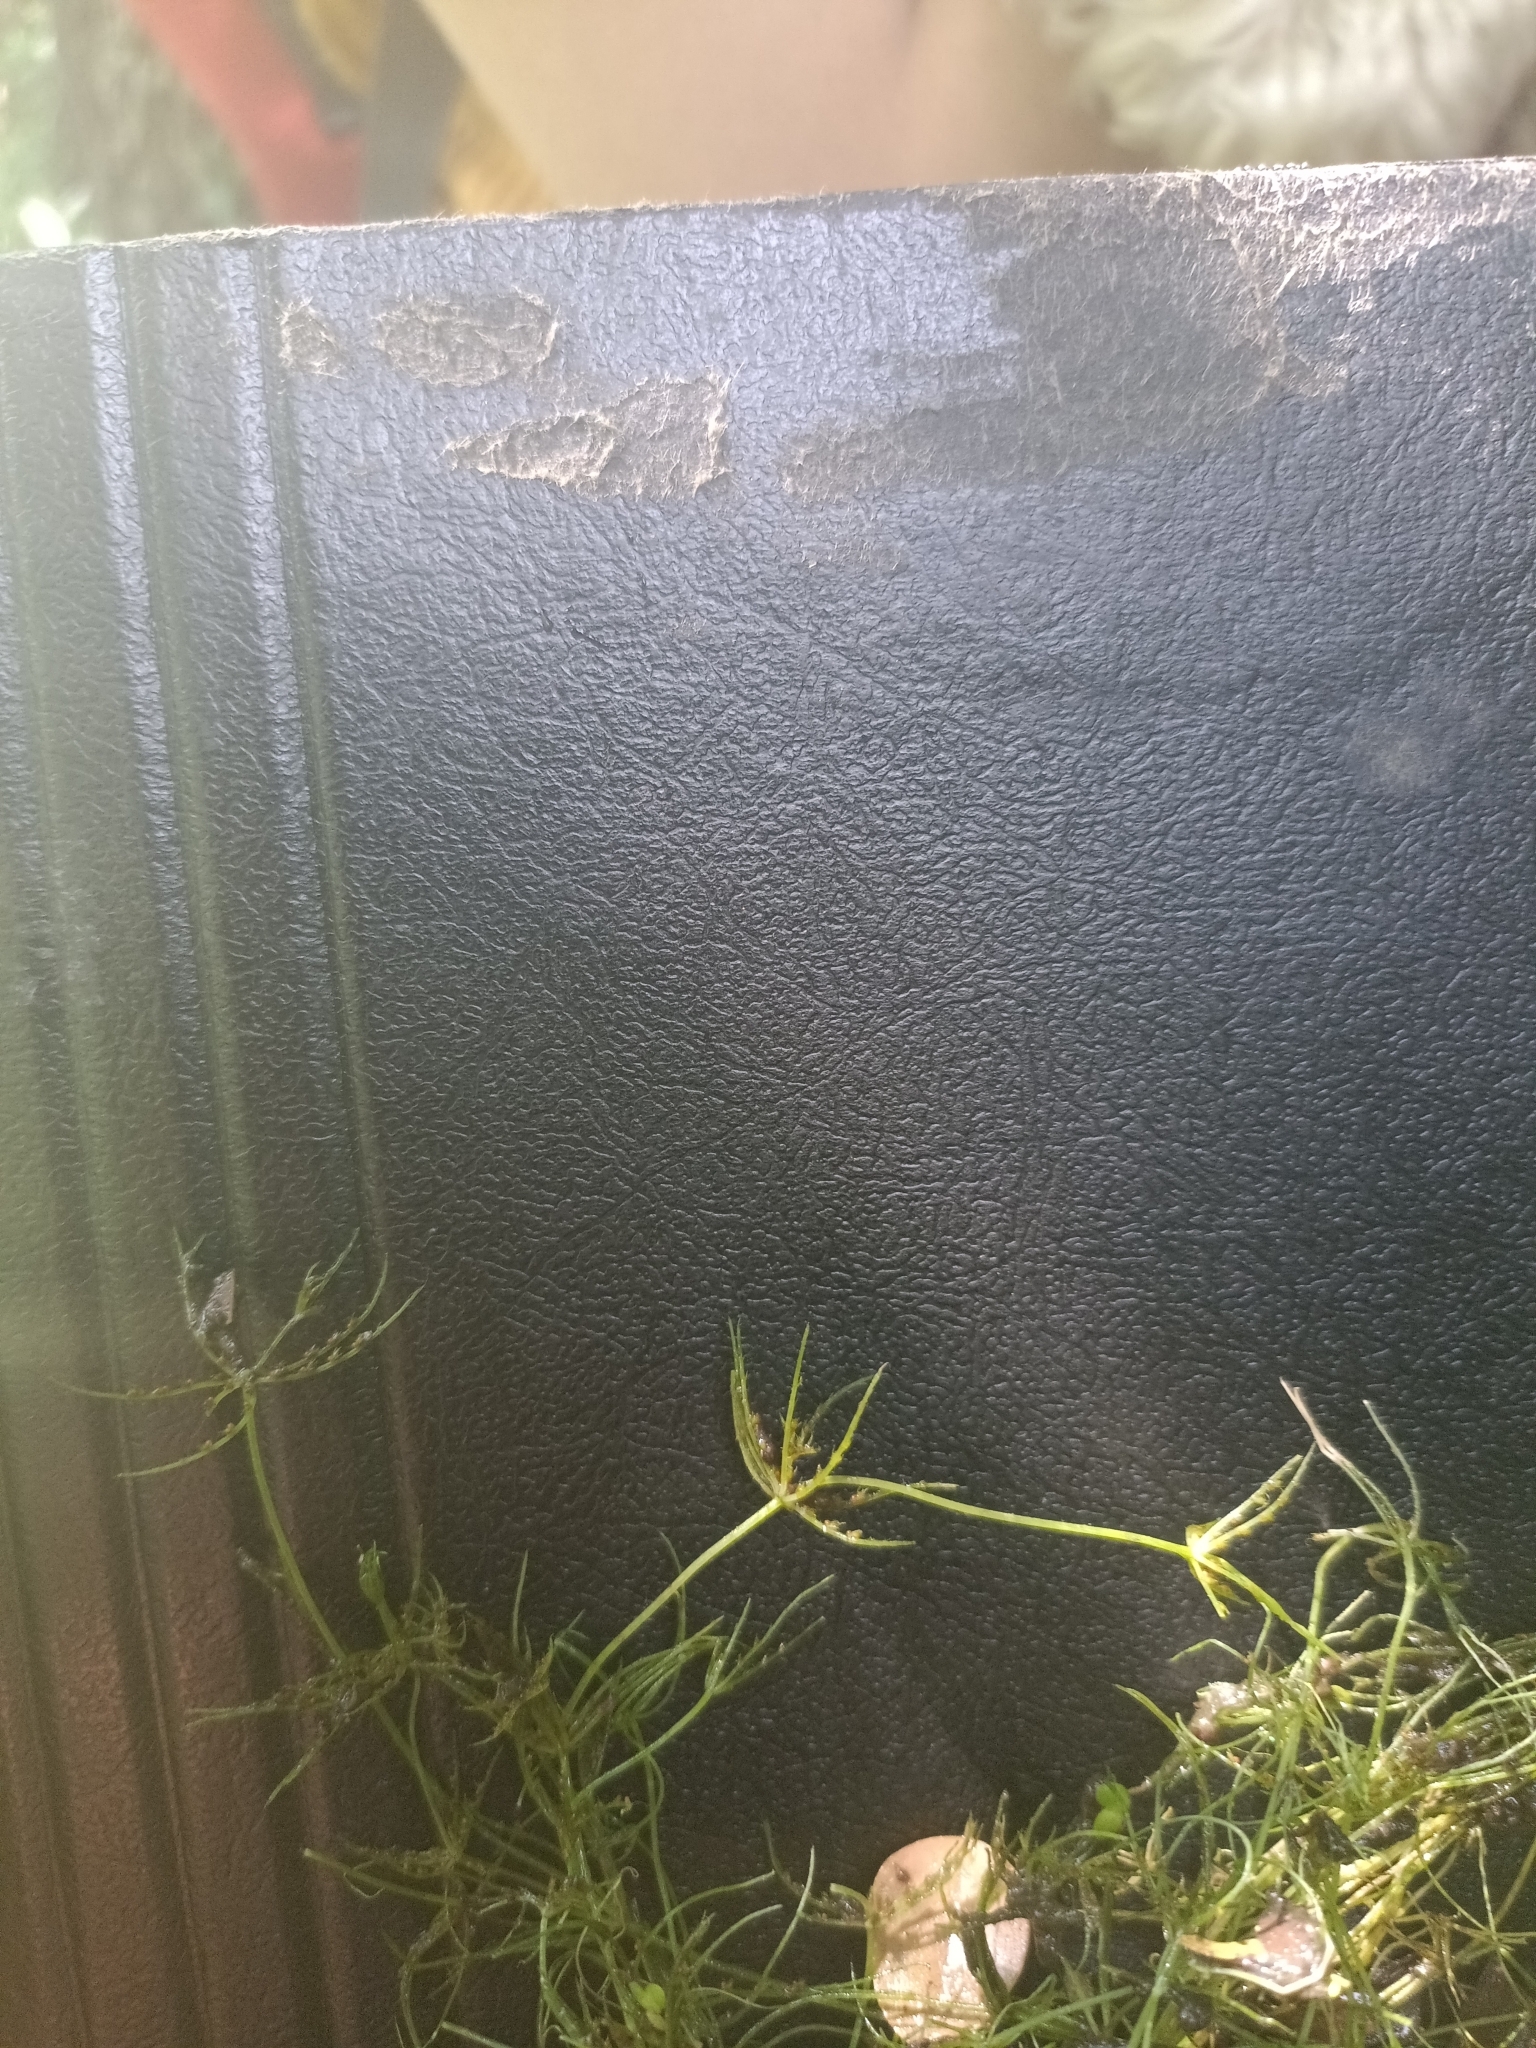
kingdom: Plantae
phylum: Charophyta
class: Charophyceae
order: Charales
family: Characeae
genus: Chara
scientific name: Chara globularis
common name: Fragile stonewort
